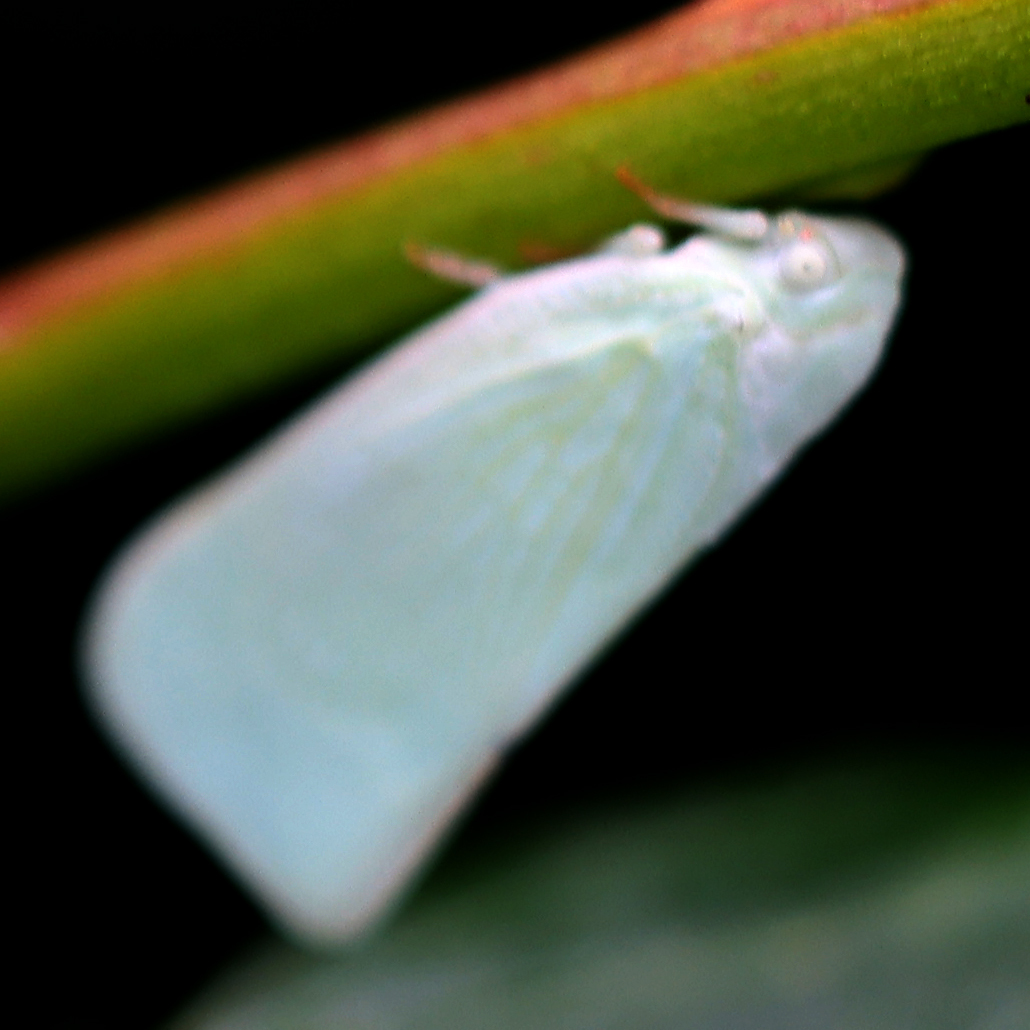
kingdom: Animalia
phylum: Arthropoda
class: Insecta
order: Hemiptera
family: Flatidae
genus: Flatormenis
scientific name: Flatormenis proxima
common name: Northern flatid planthopper
